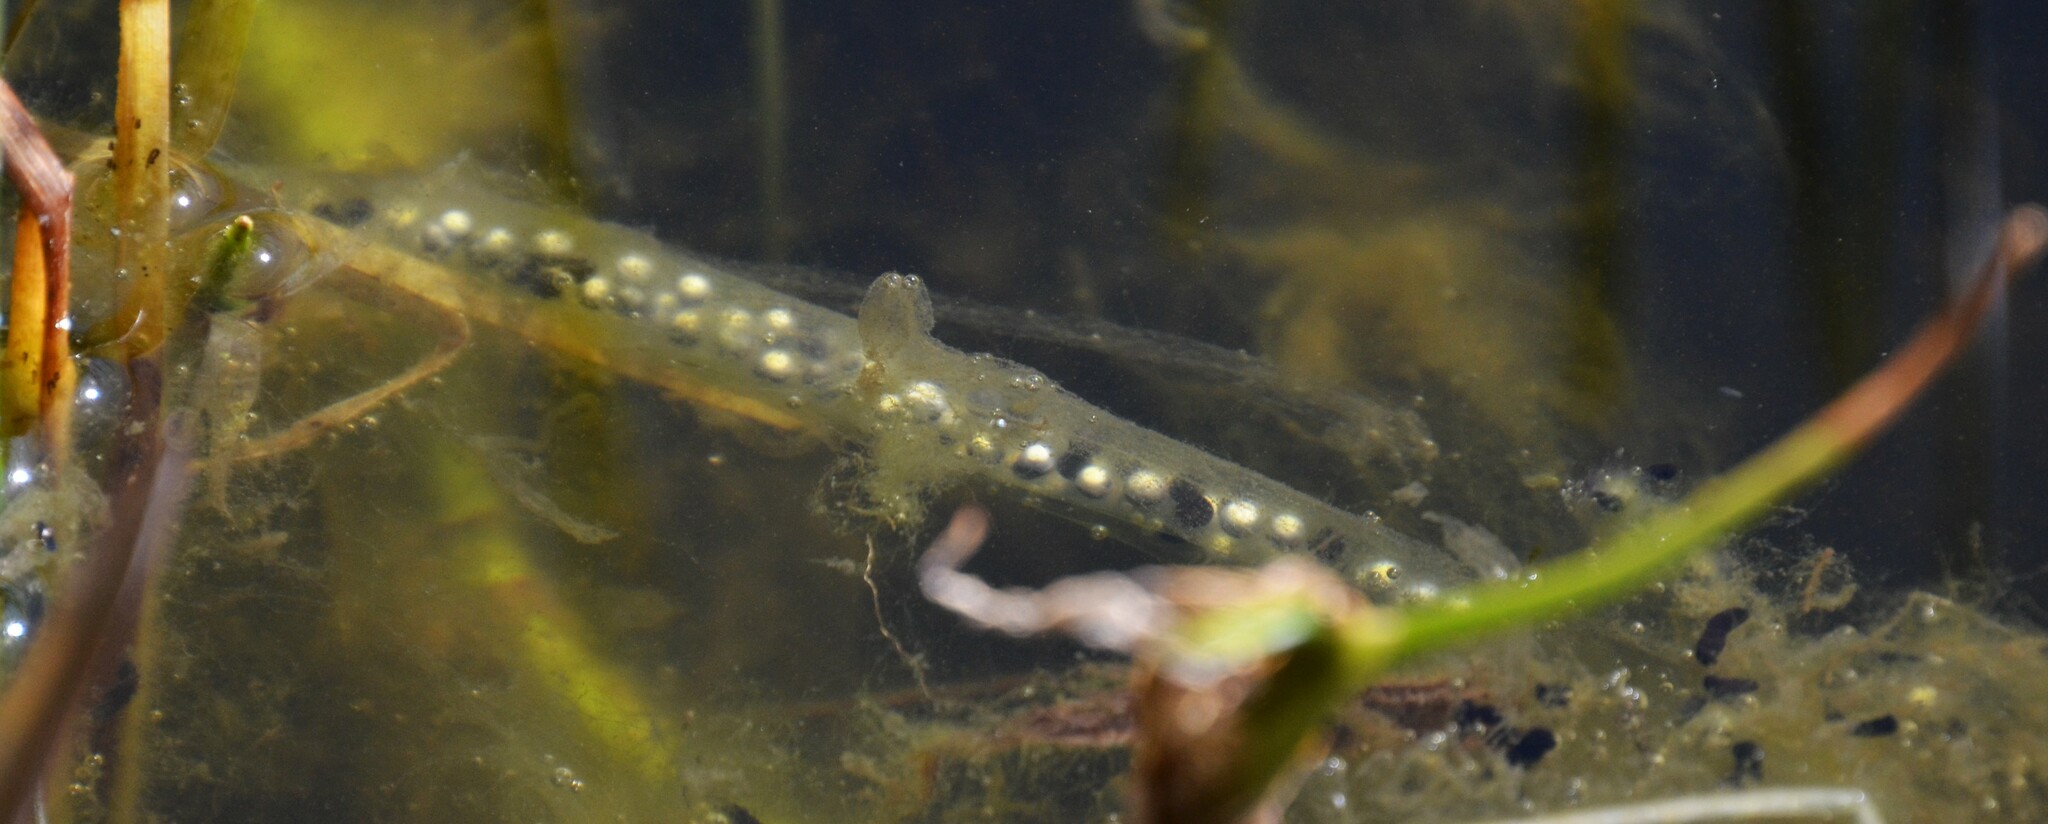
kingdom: Animalia
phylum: Chordata
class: Amphibia
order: Anura
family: Bufonidae
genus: Bufo
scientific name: Bufo bufo
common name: Common toad
